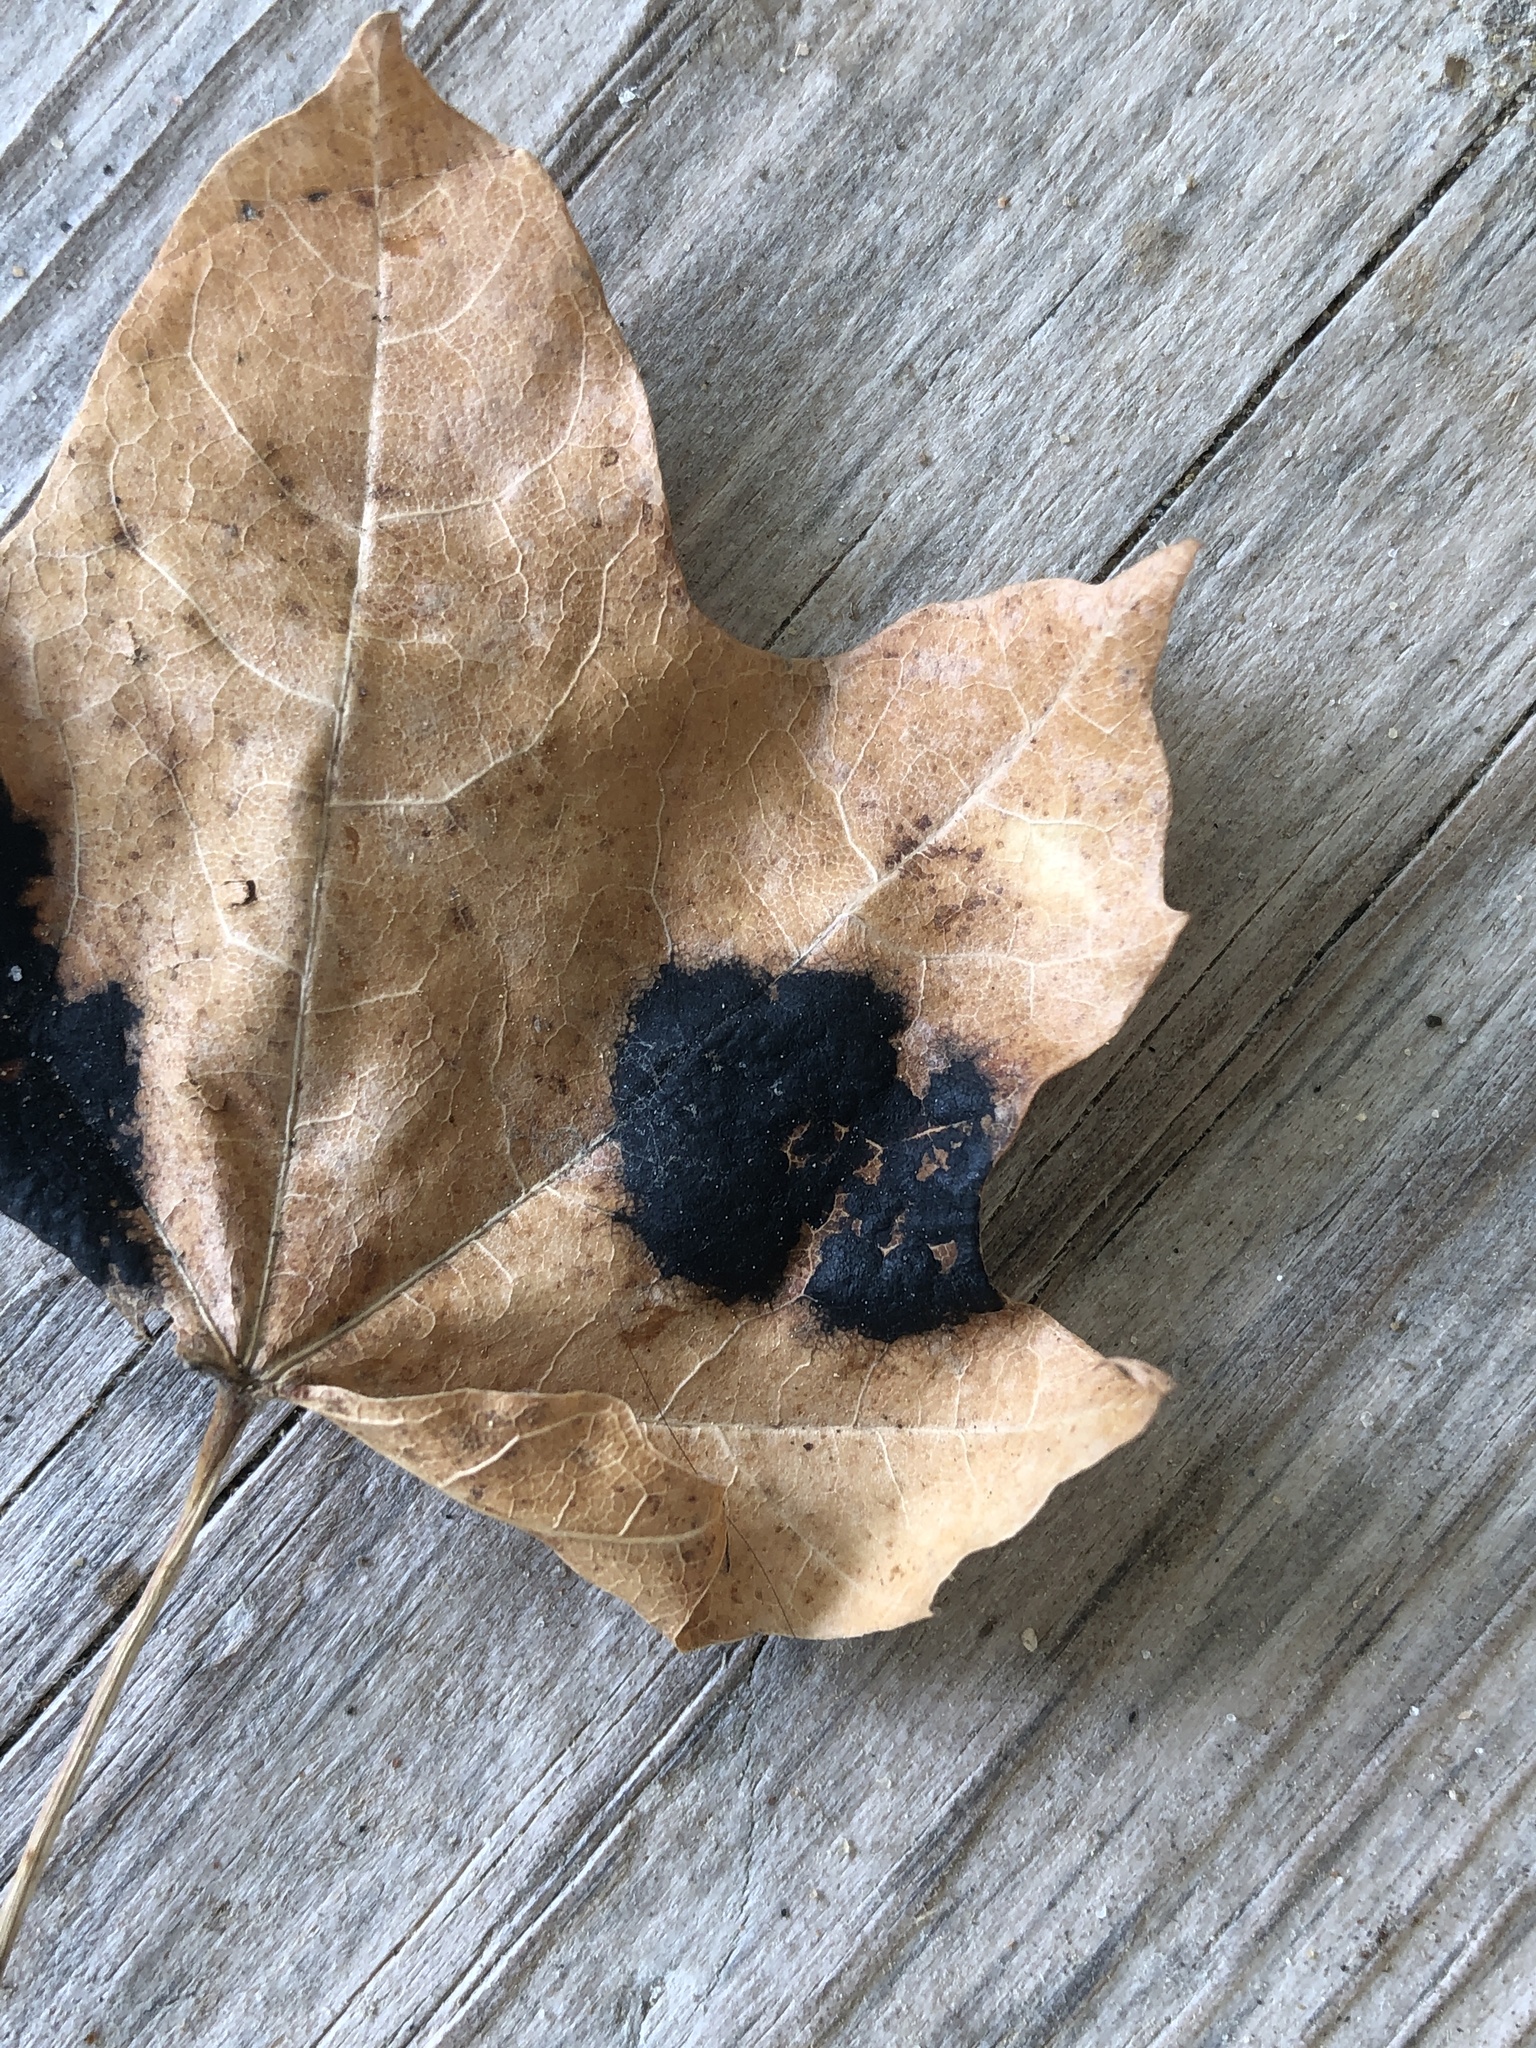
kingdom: Fungi
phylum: Ascomycota
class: Leotiomycetes
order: Rhytismatales
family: Rhytismataceae
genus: Rhytisma
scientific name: Rhytisma acerinum
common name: European tar spot
